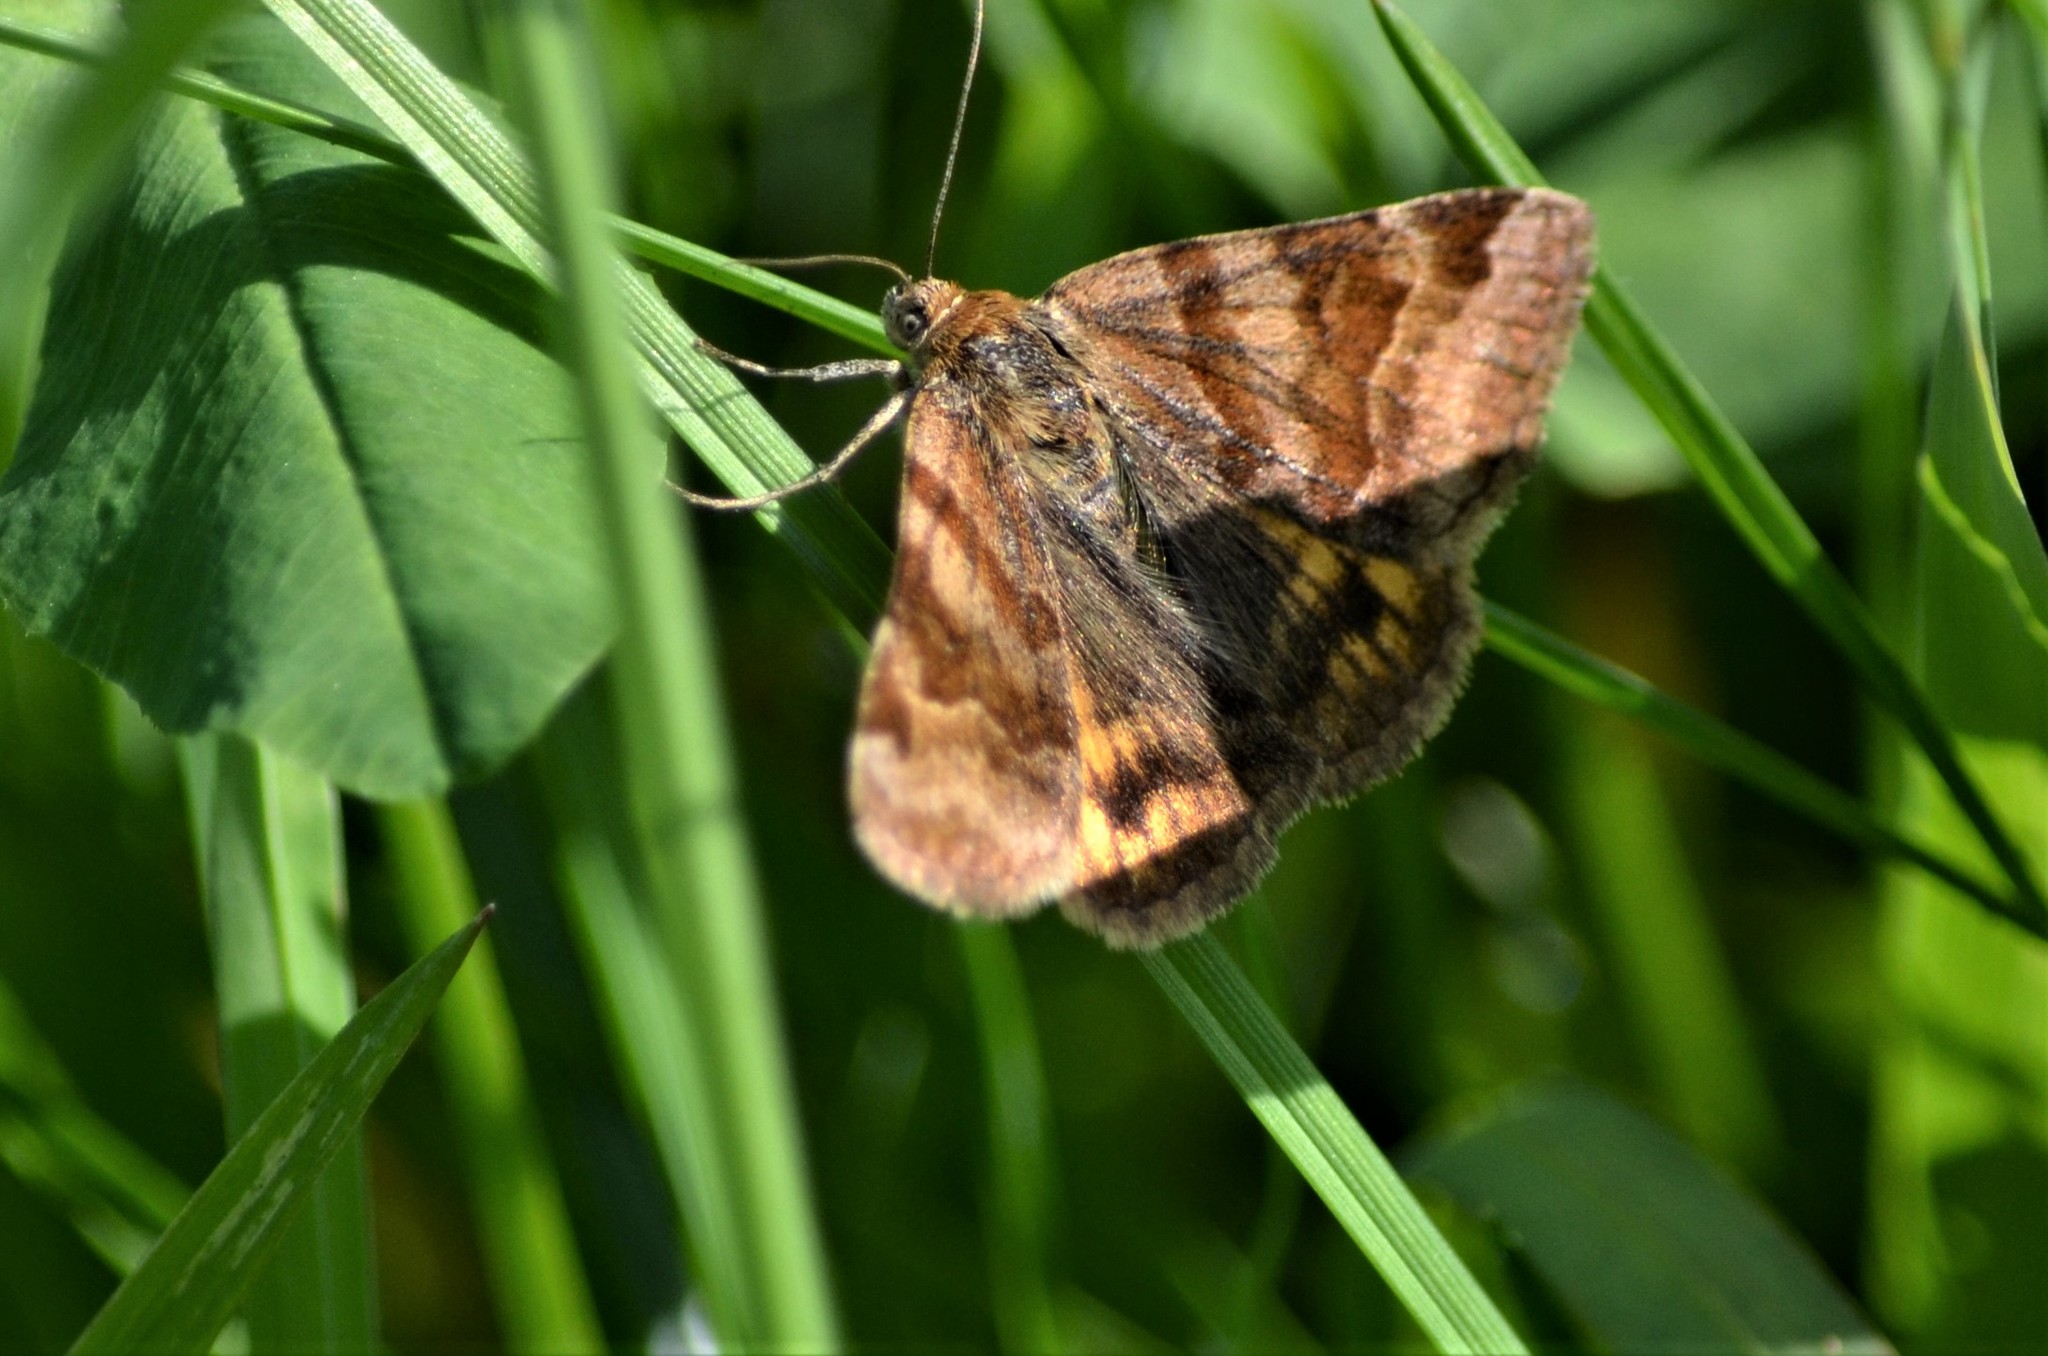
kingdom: Animalia
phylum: Arthropoda
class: Insecta
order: Lepidoptera
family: Erebidae
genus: Euclidia
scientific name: Euclidia glyphica
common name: Burnet companion
